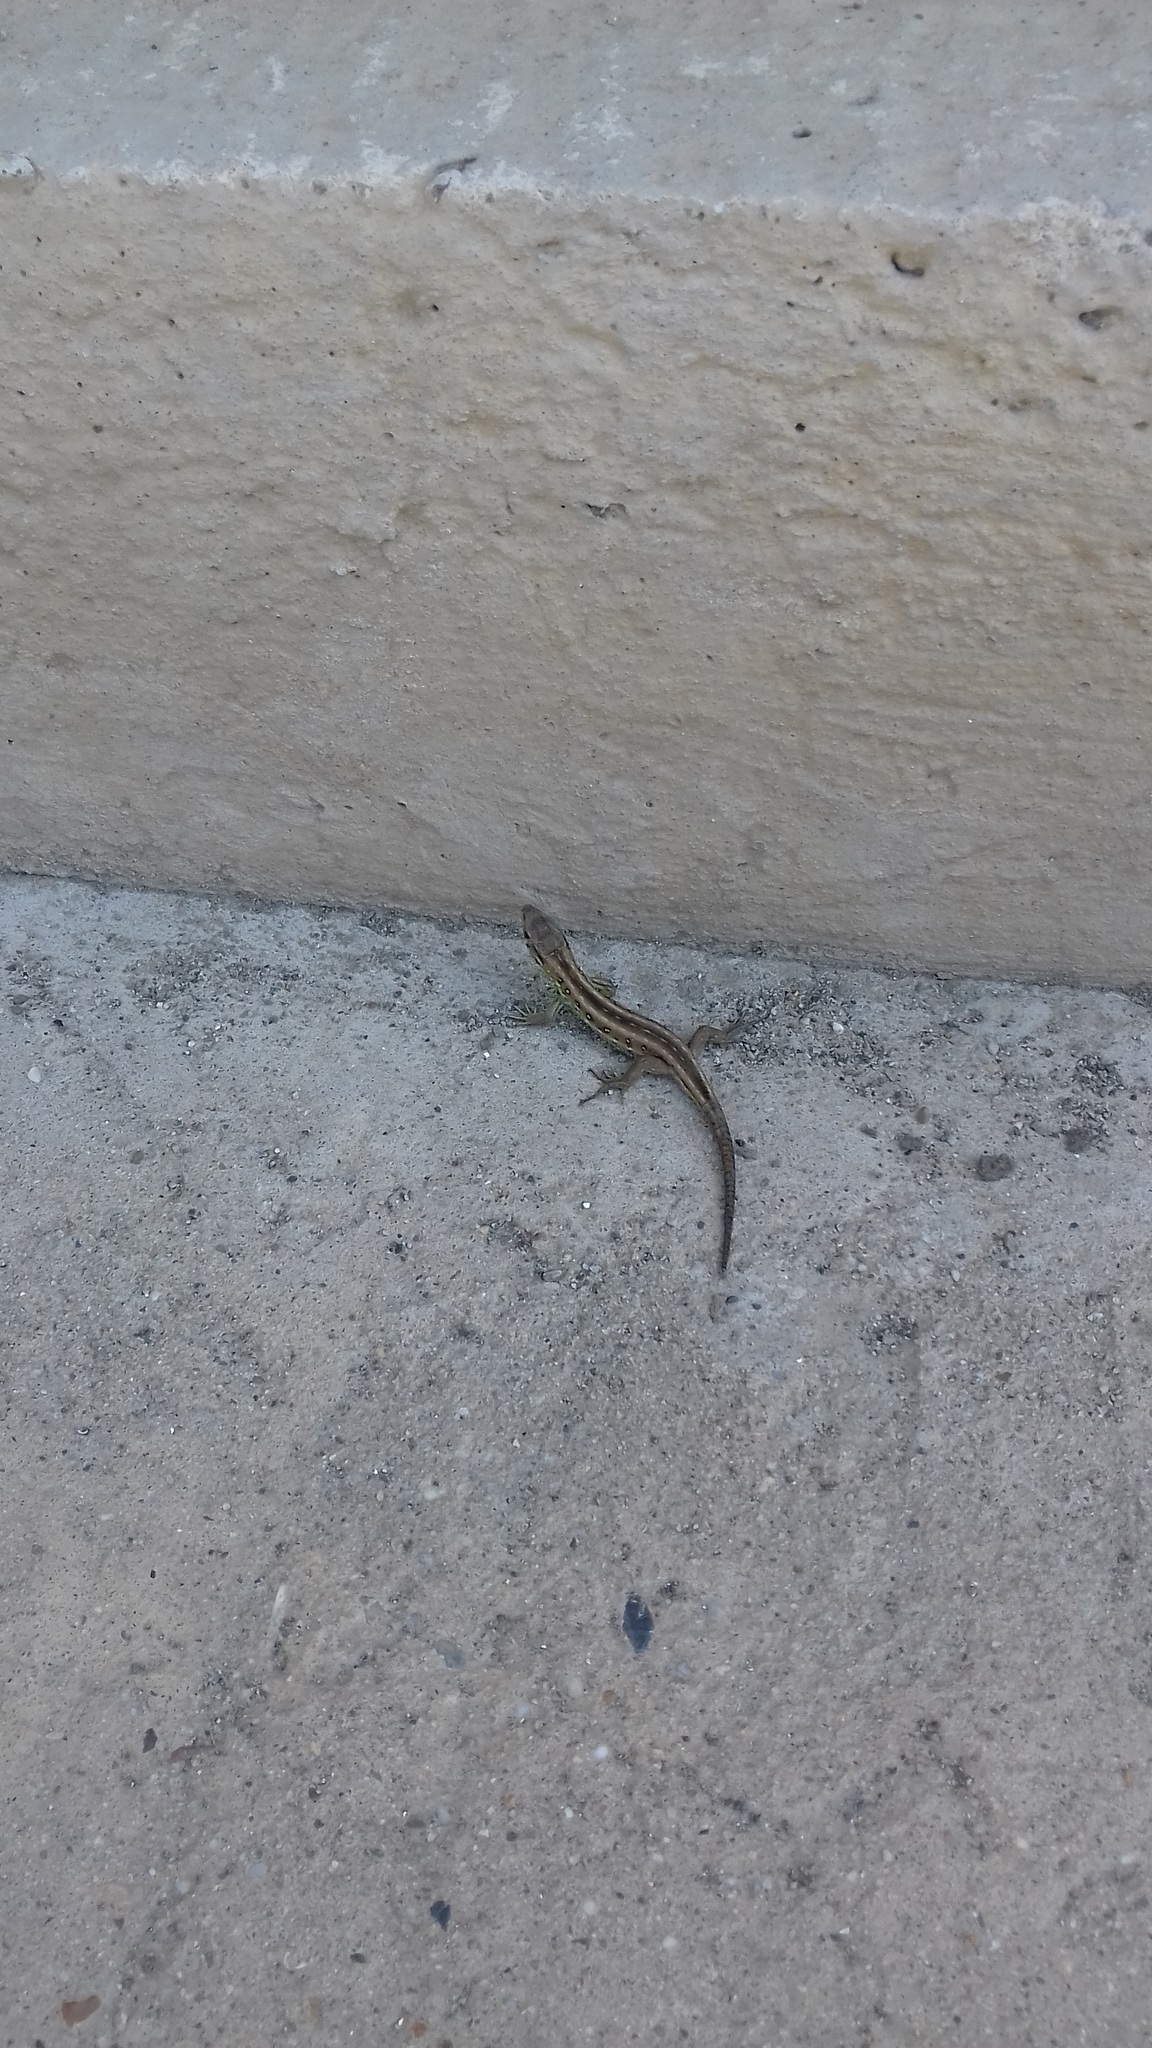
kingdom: Animalia
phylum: Chordata
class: Squamata
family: Lacertidae
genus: Lacerta
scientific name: Lacerta agilis
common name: Sand lizard
